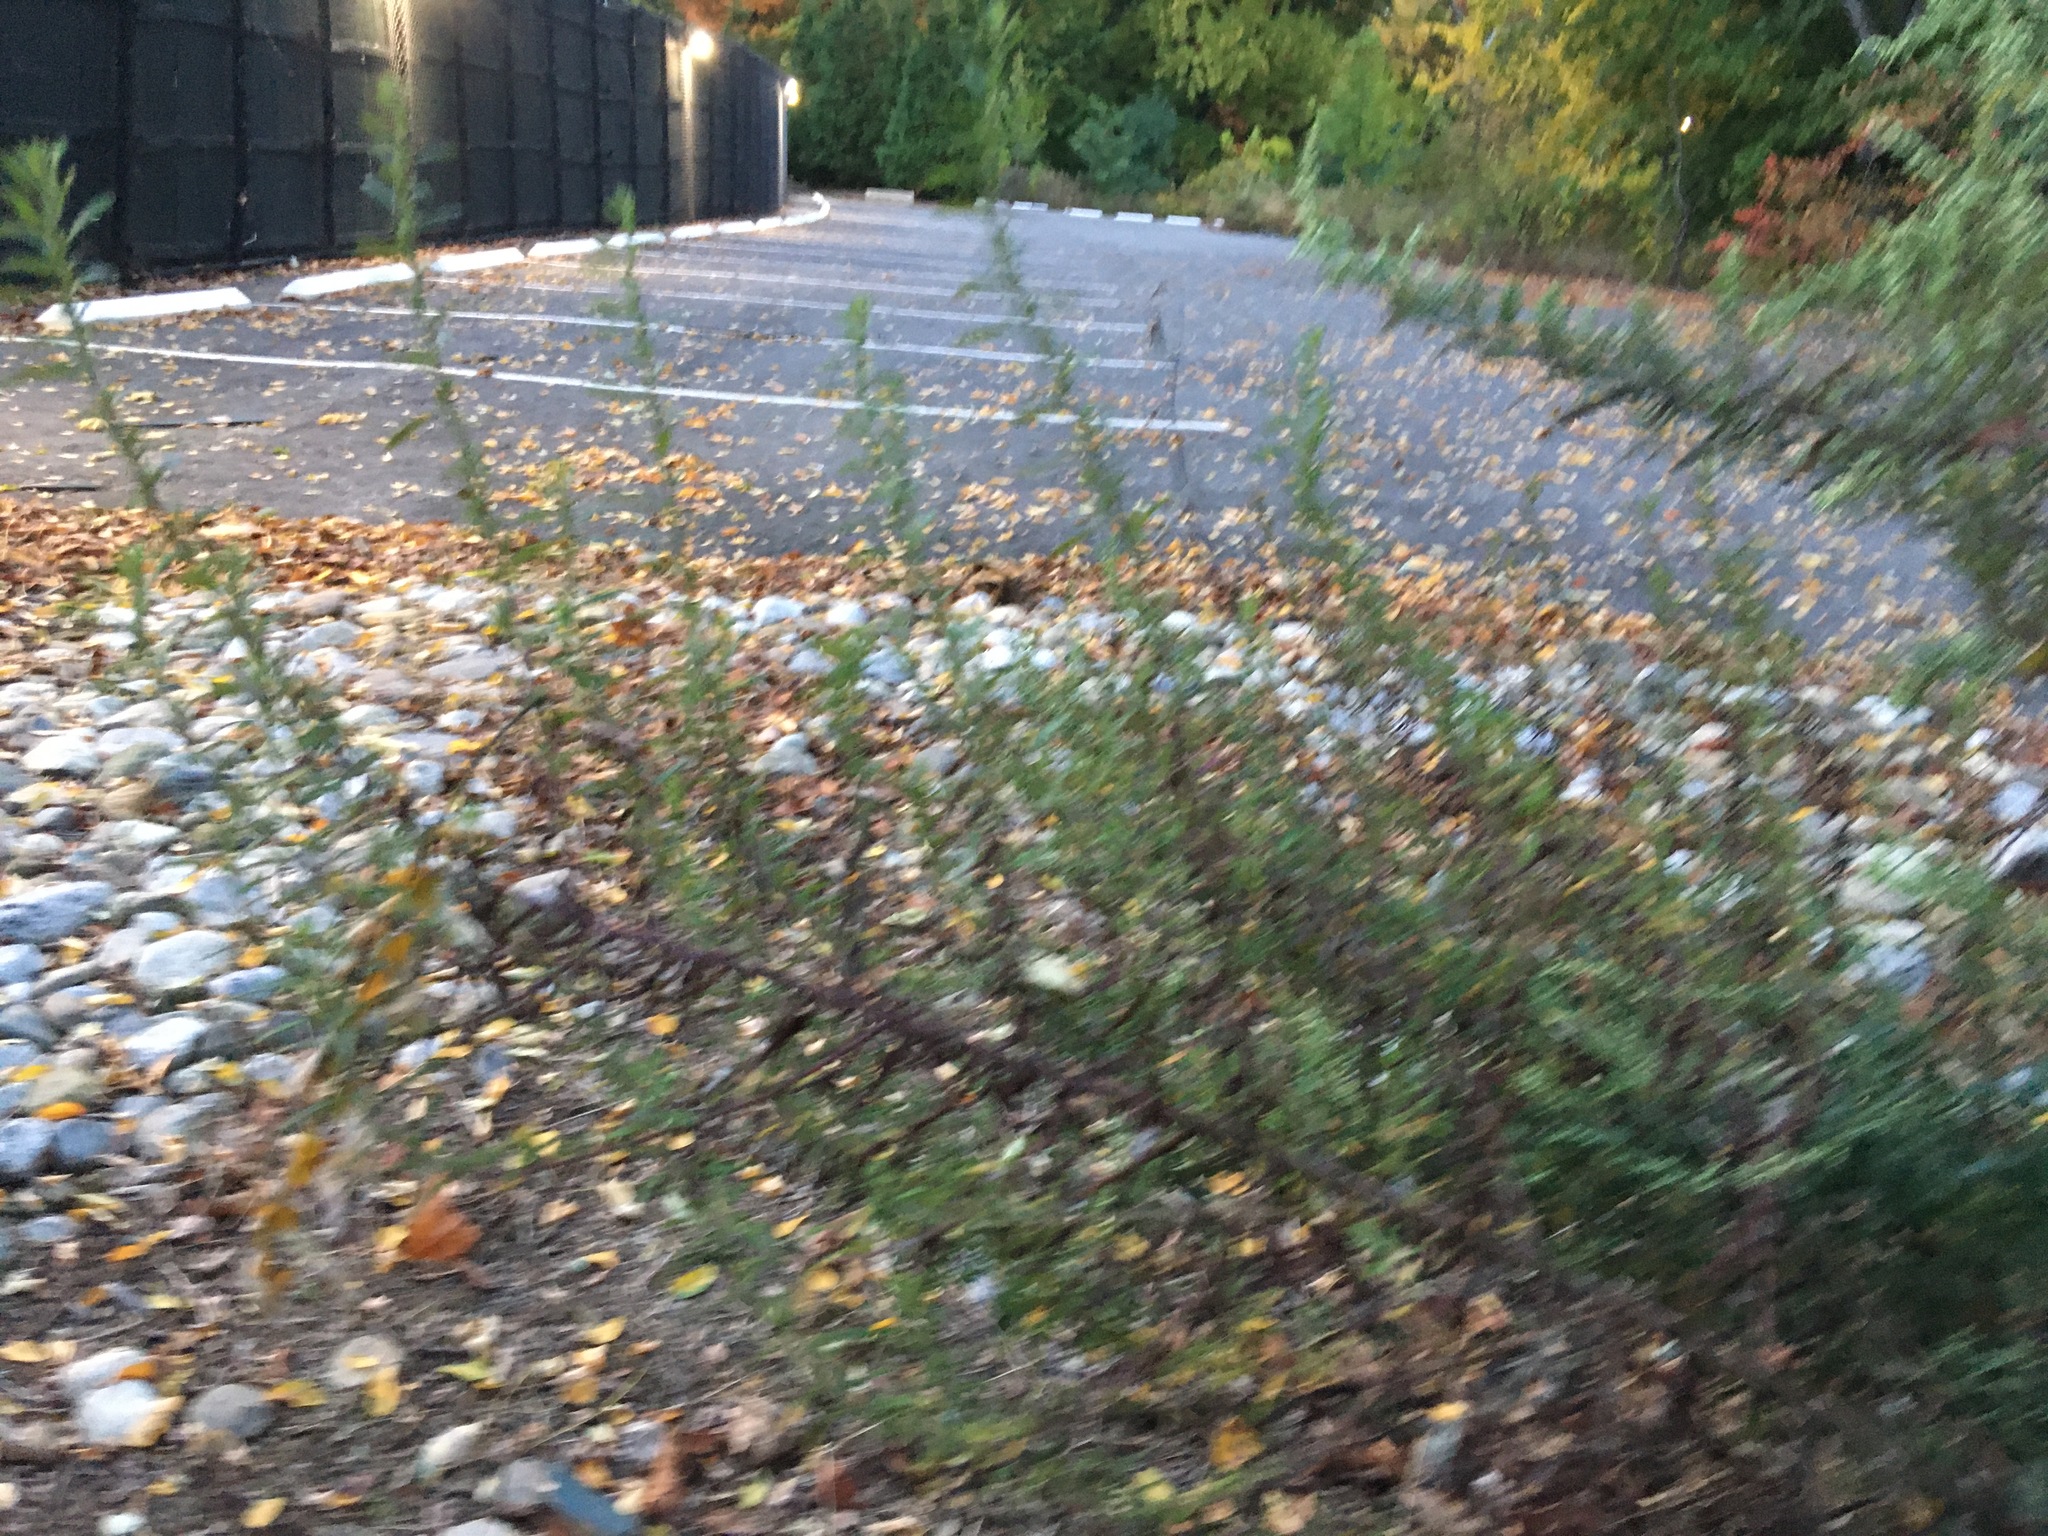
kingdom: Plantae
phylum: Tracheophyta
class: Magnoliopsida
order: Asterales
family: Asteraceae
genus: Artemisia
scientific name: Artemisia vulgaris
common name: Mugwort
